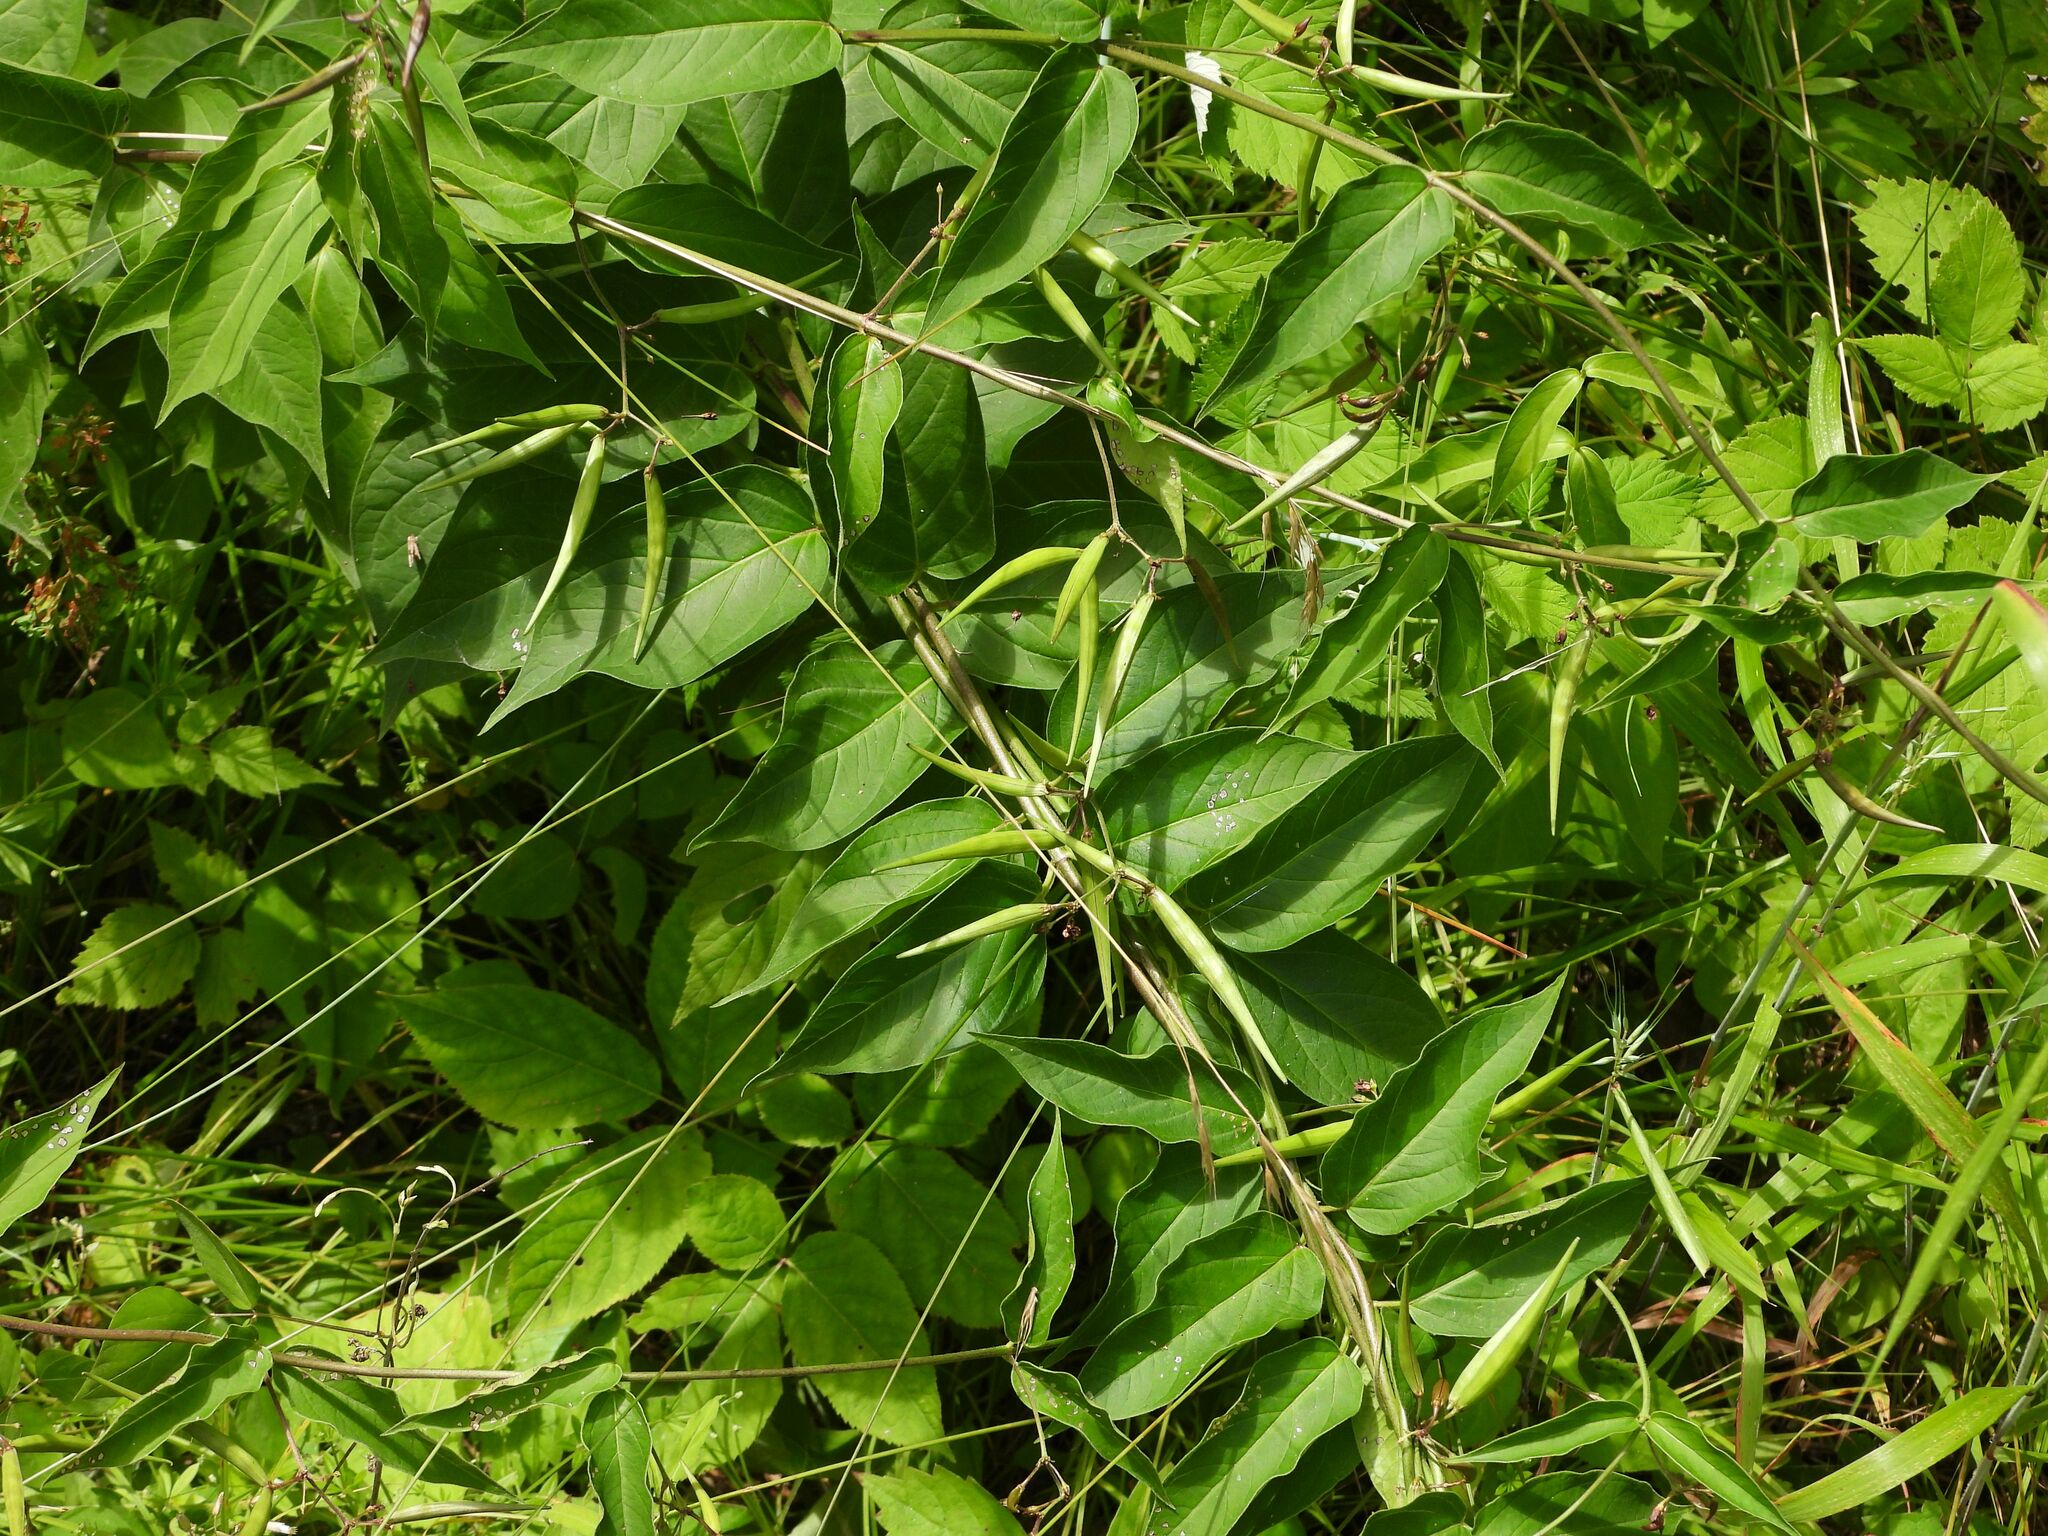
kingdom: Plantae
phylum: Tracheophyta
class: Magnoliopsida
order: Gentianales
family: Apocynaceae
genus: Vincetoxicum
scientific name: Vincetoxicum rossicum
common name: Dog-strangling vine
